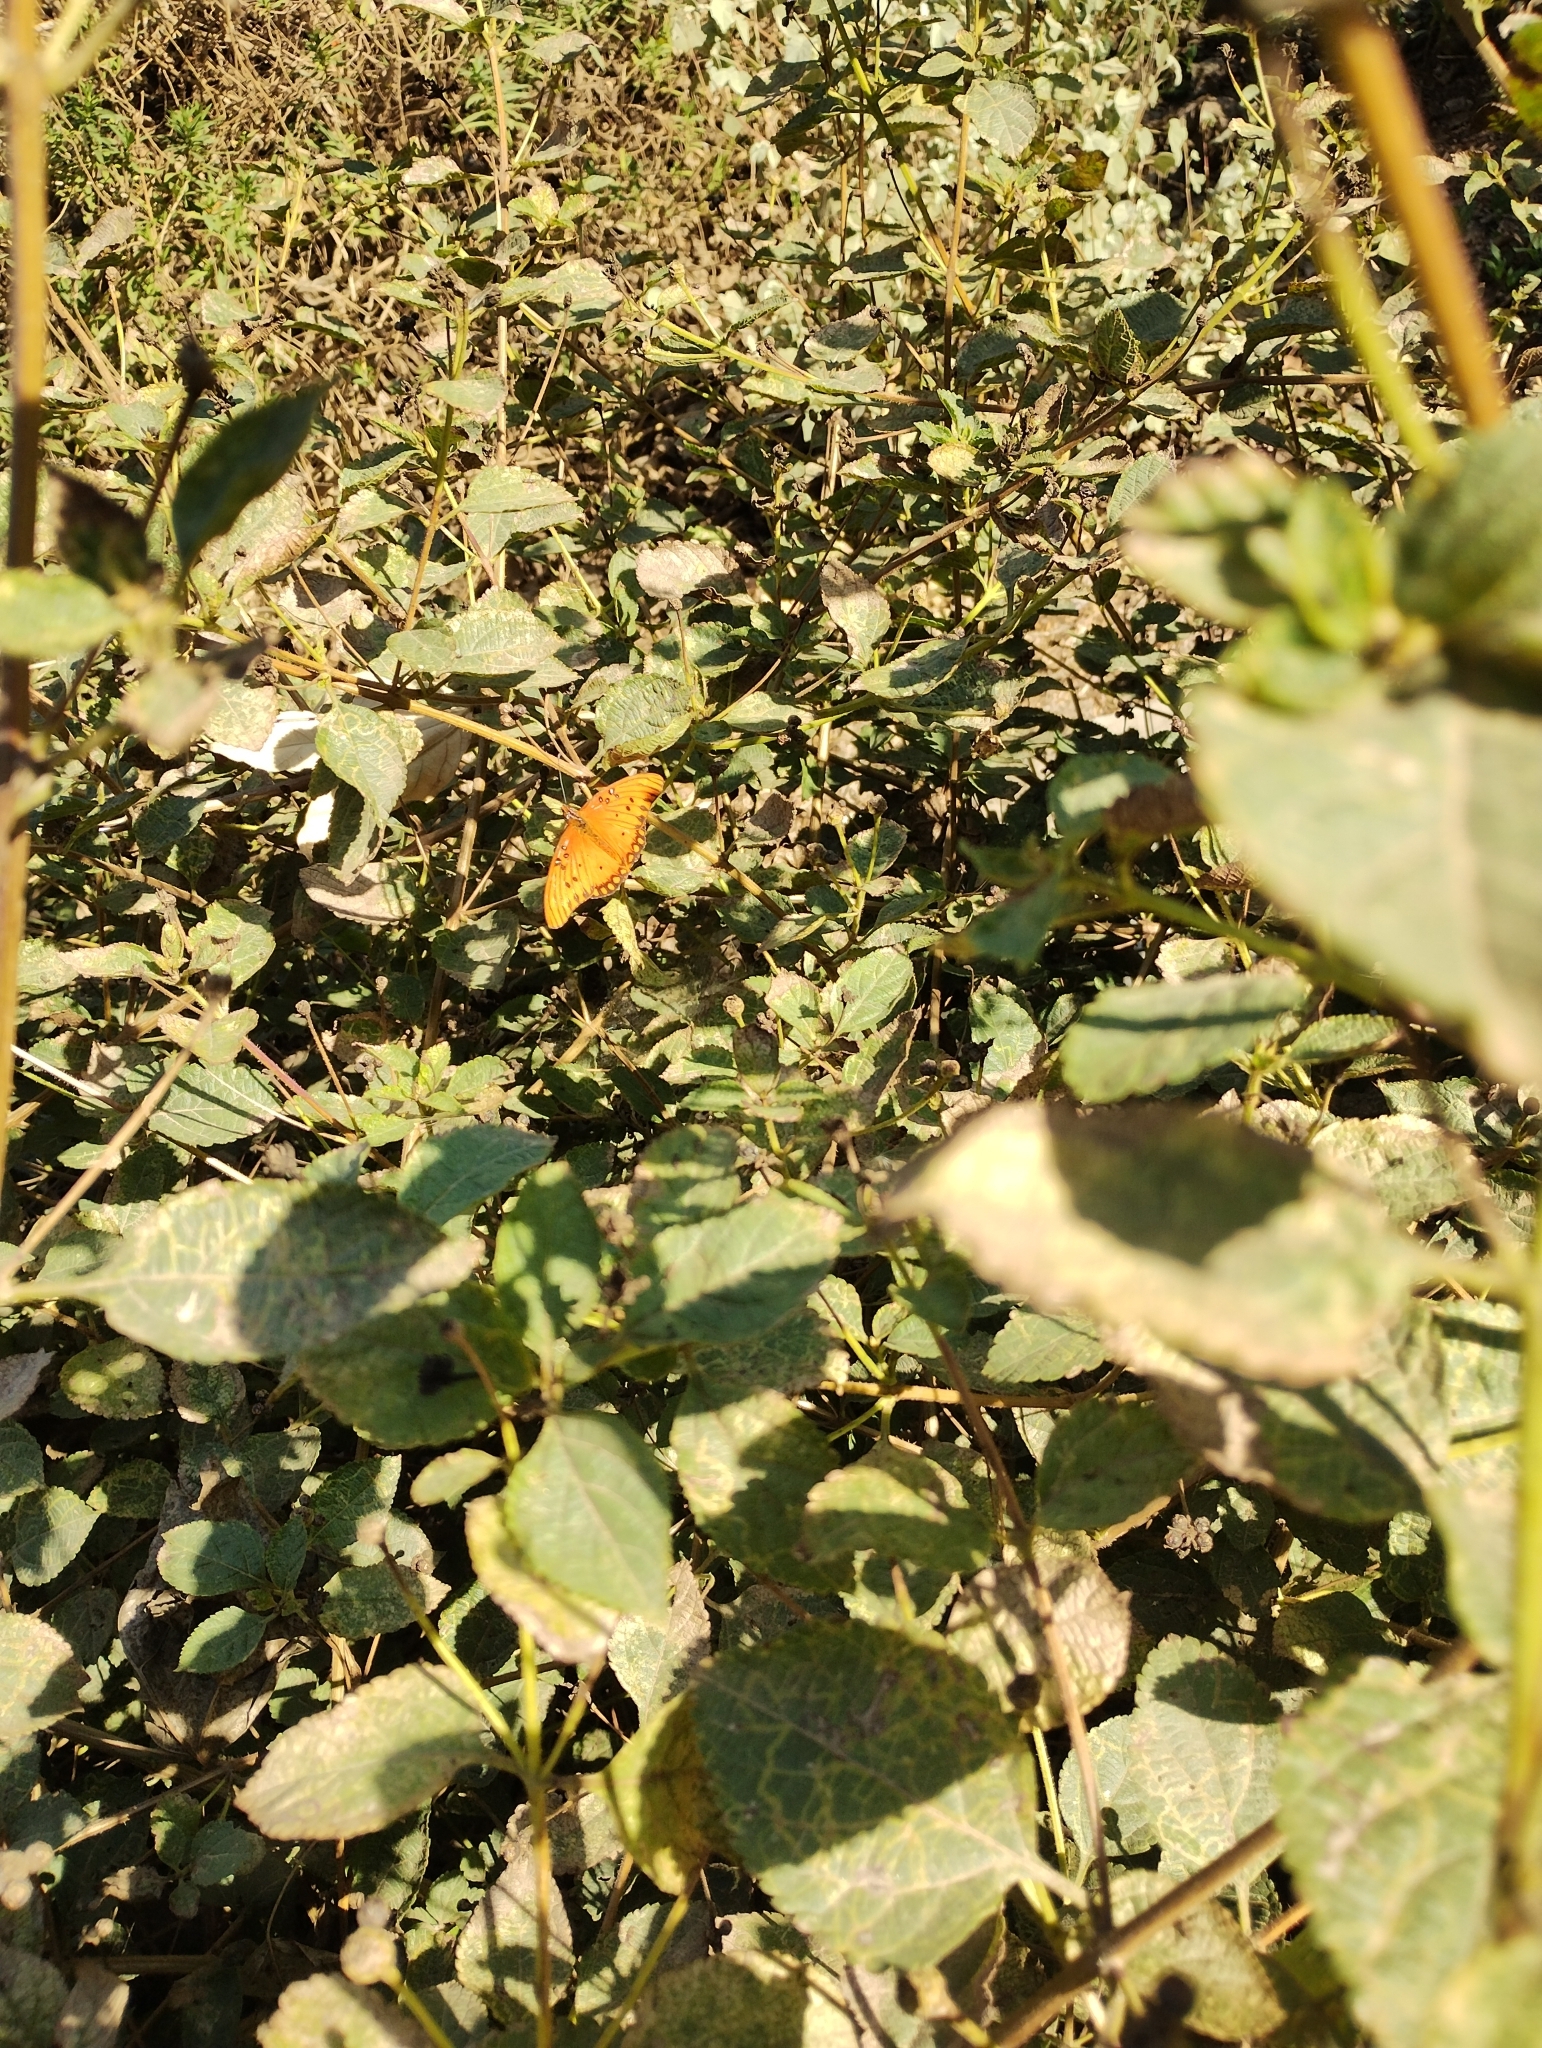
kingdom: Animalia
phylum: Arthropoda
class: Insecta
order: Lepidoptera
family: Nymphalidae
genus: Dione
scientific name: Dione vanillae
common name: Gulf fritillary
